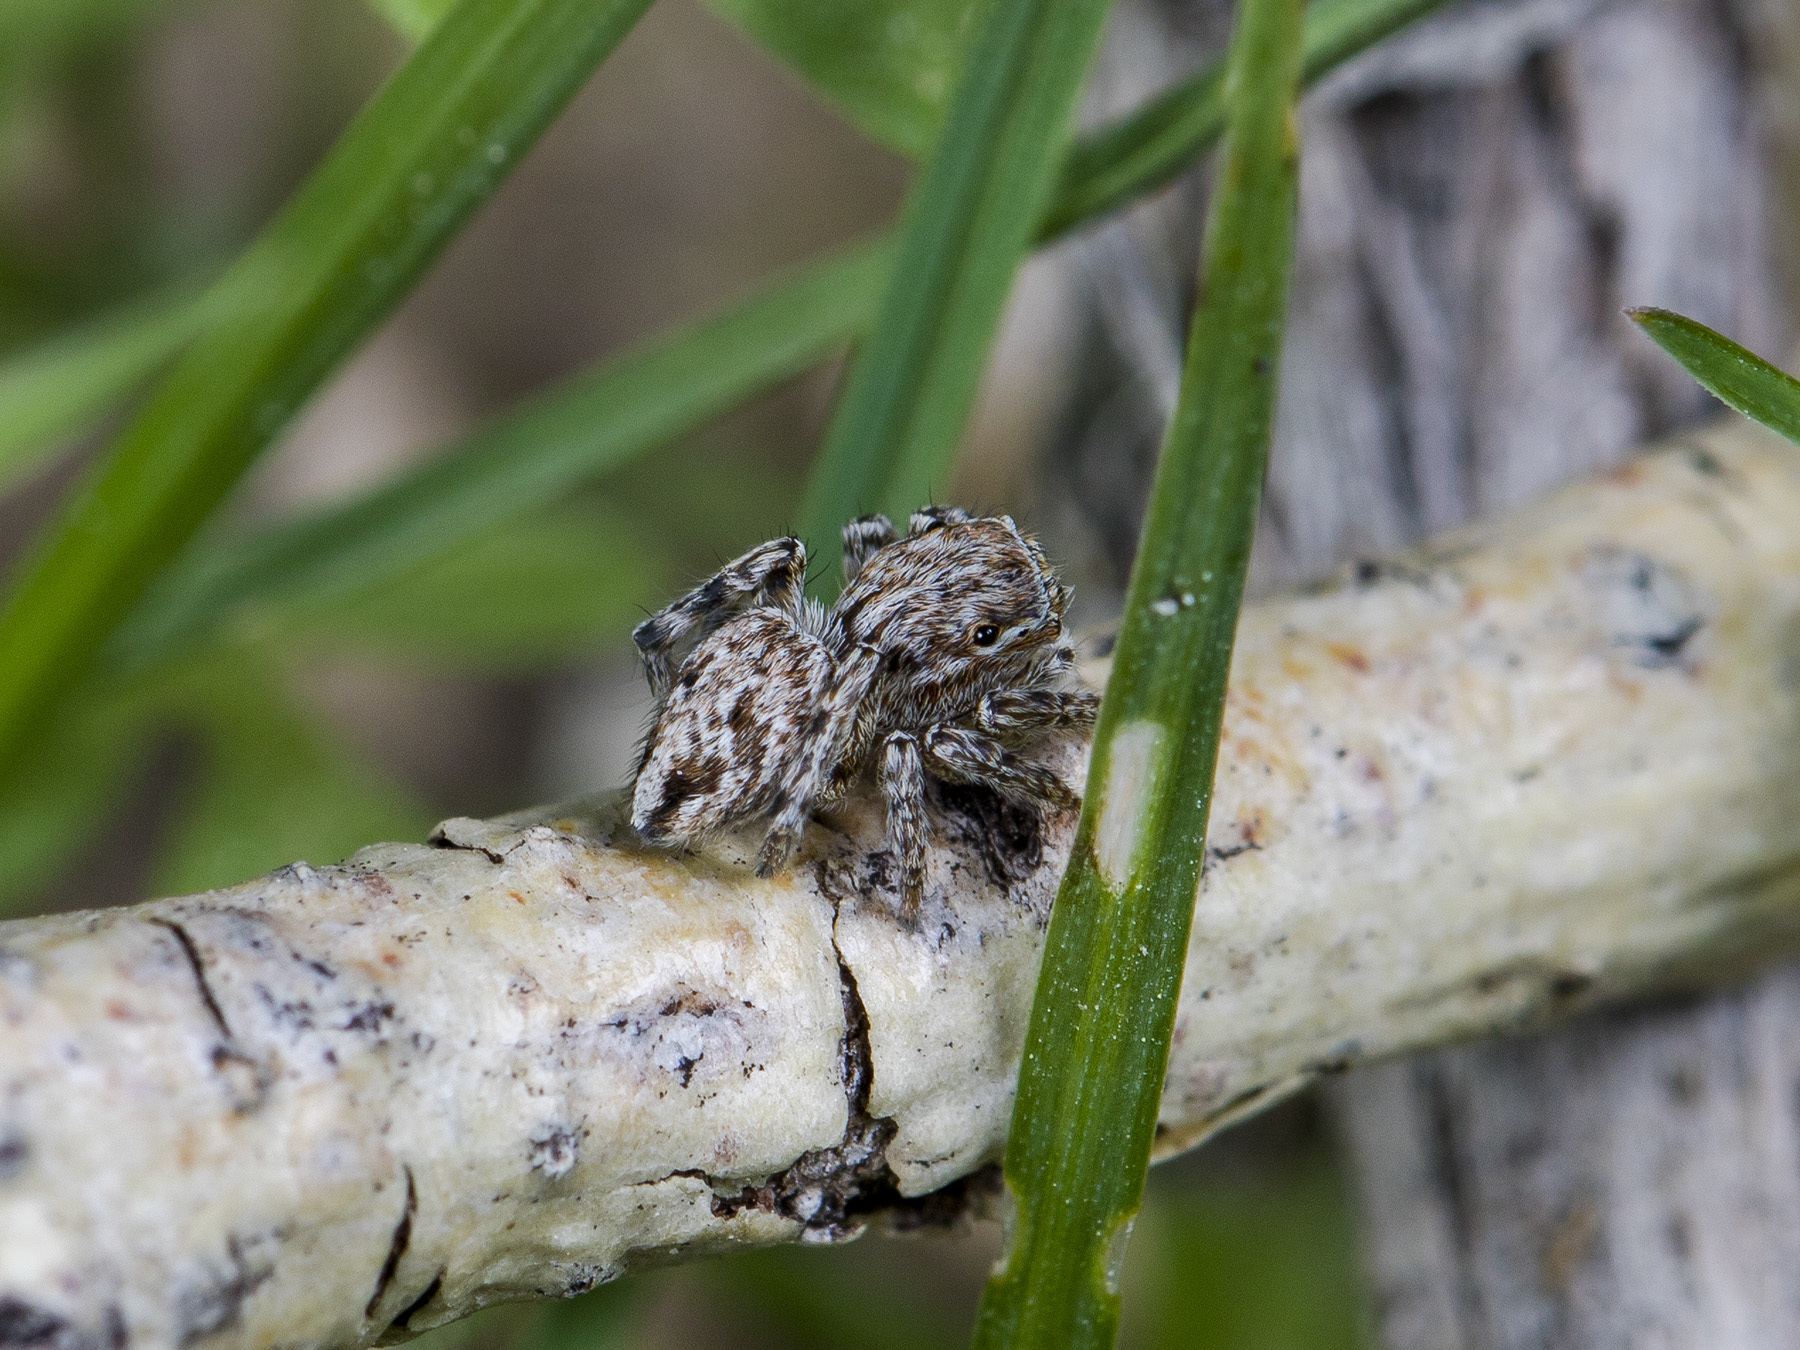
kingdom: Animalia
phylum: Arthropoda
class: Arachnida
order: Araneae
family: Salticidae
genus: Attulus
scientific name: Attulus nenilini
